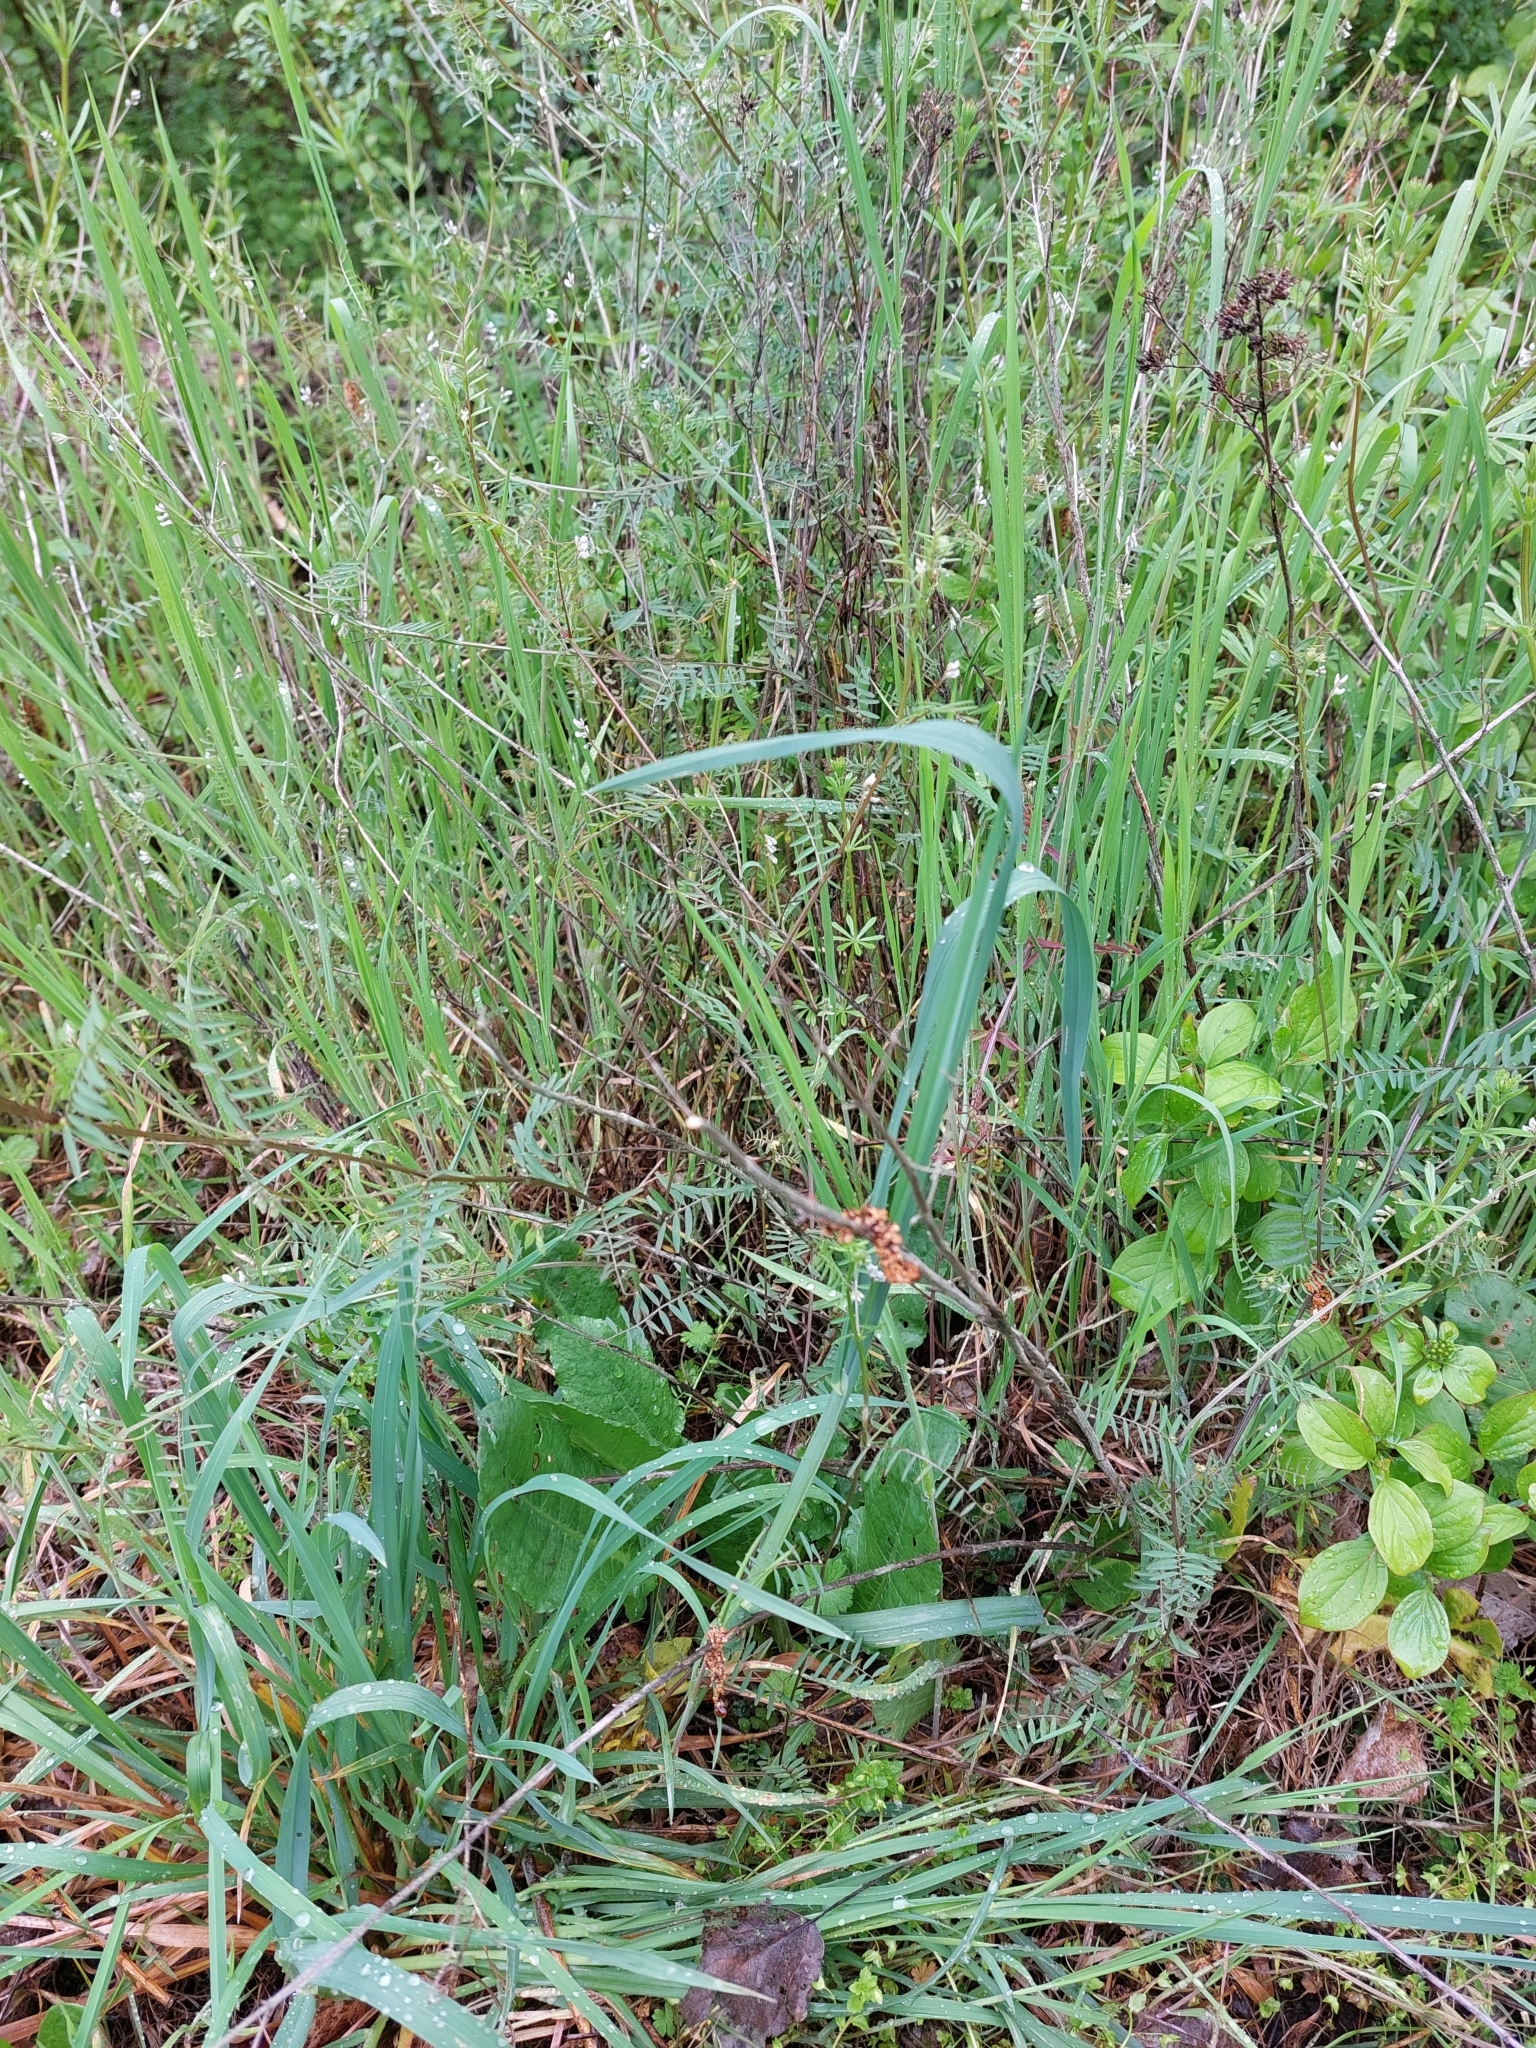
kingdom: Plantae
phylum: Tracheophyta
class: Magnoliopsida
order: Fabales
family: Fabaceae
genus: Vicia
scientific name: Vicia hirsuta
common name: Tiny vetch
